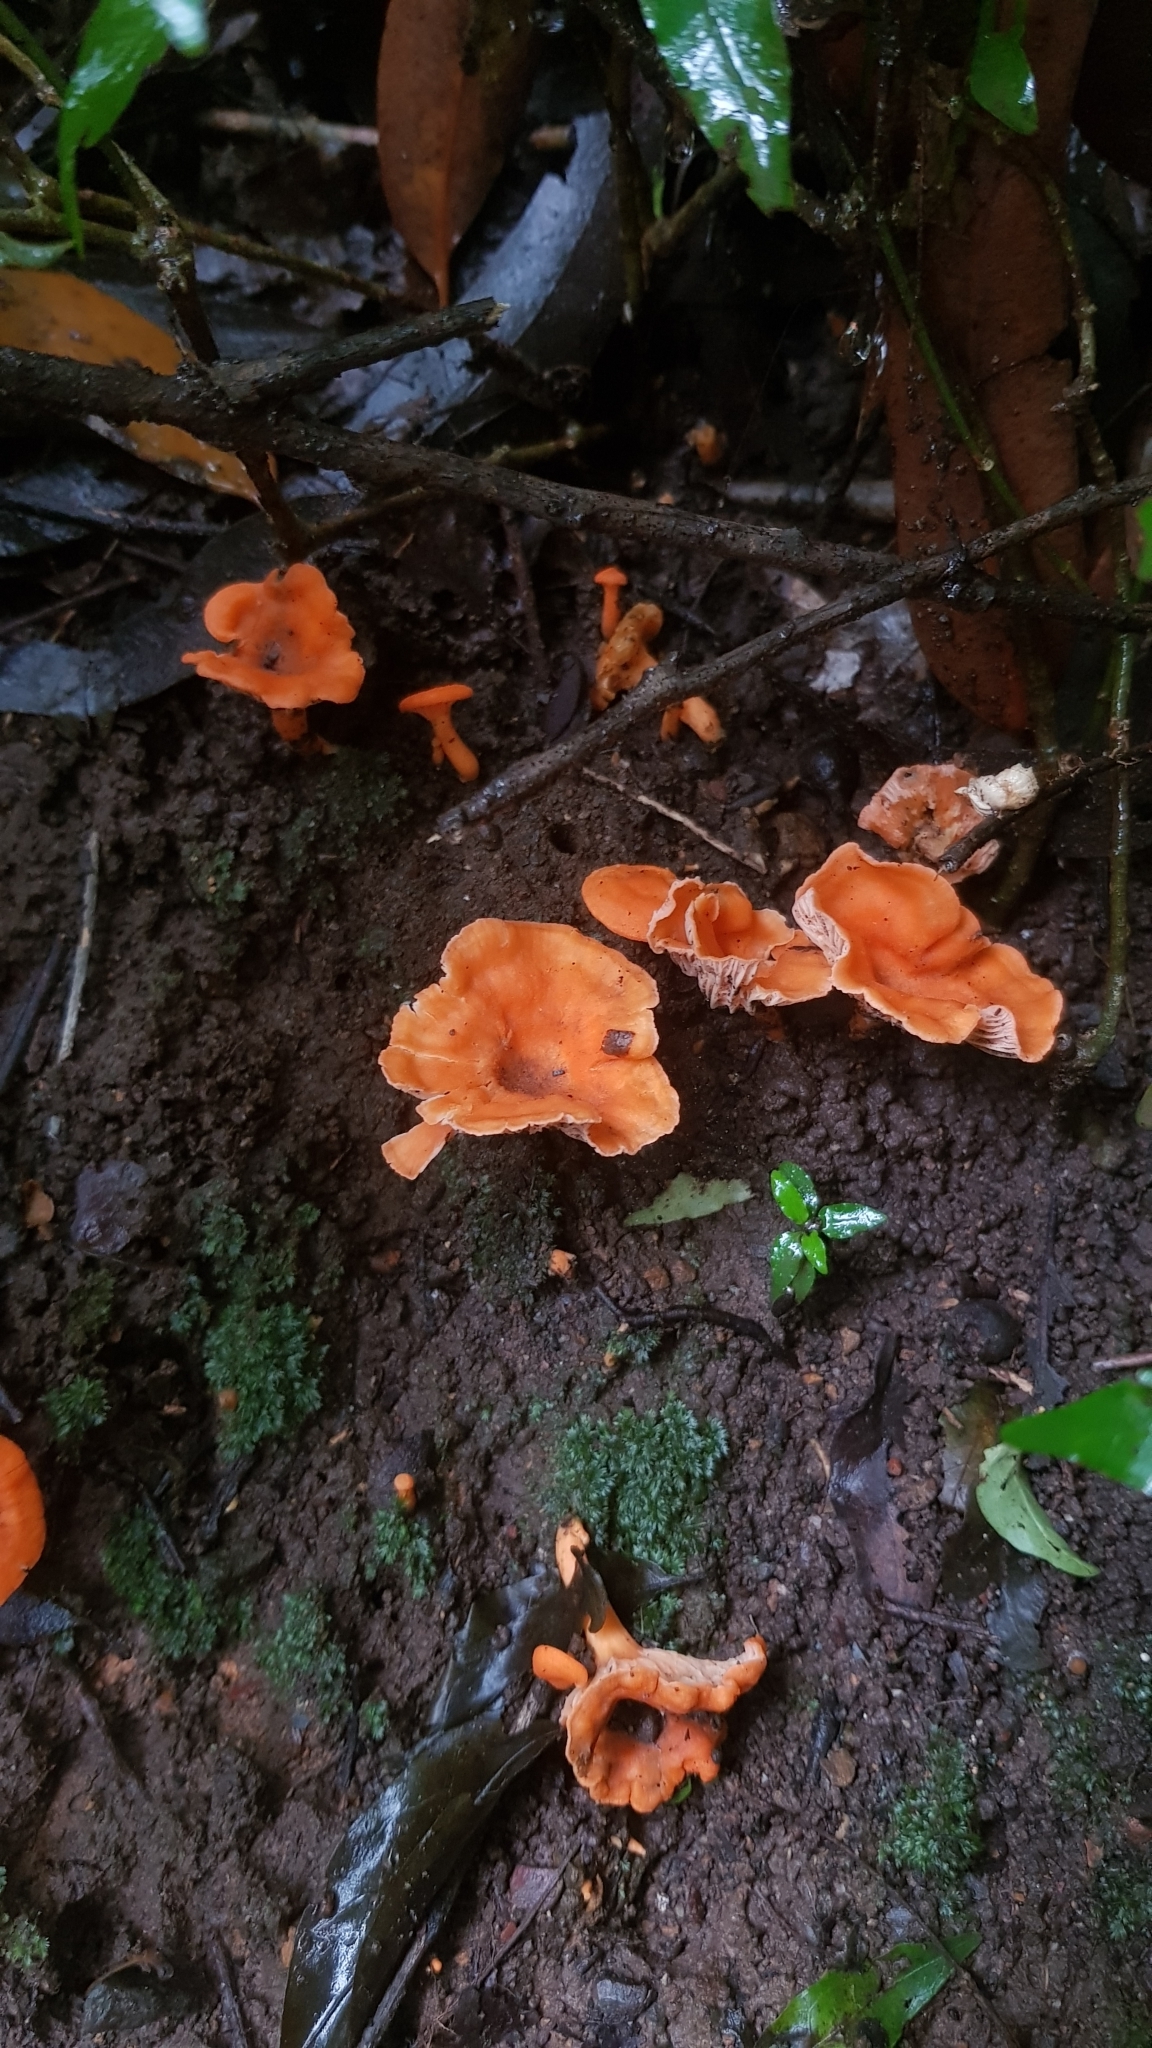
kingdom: Fungi
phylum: Basidiomycota
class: Agaricomycetes
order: Cantharellales
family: Hydnaceae
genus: Cantharellus
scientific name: Cantharellus
